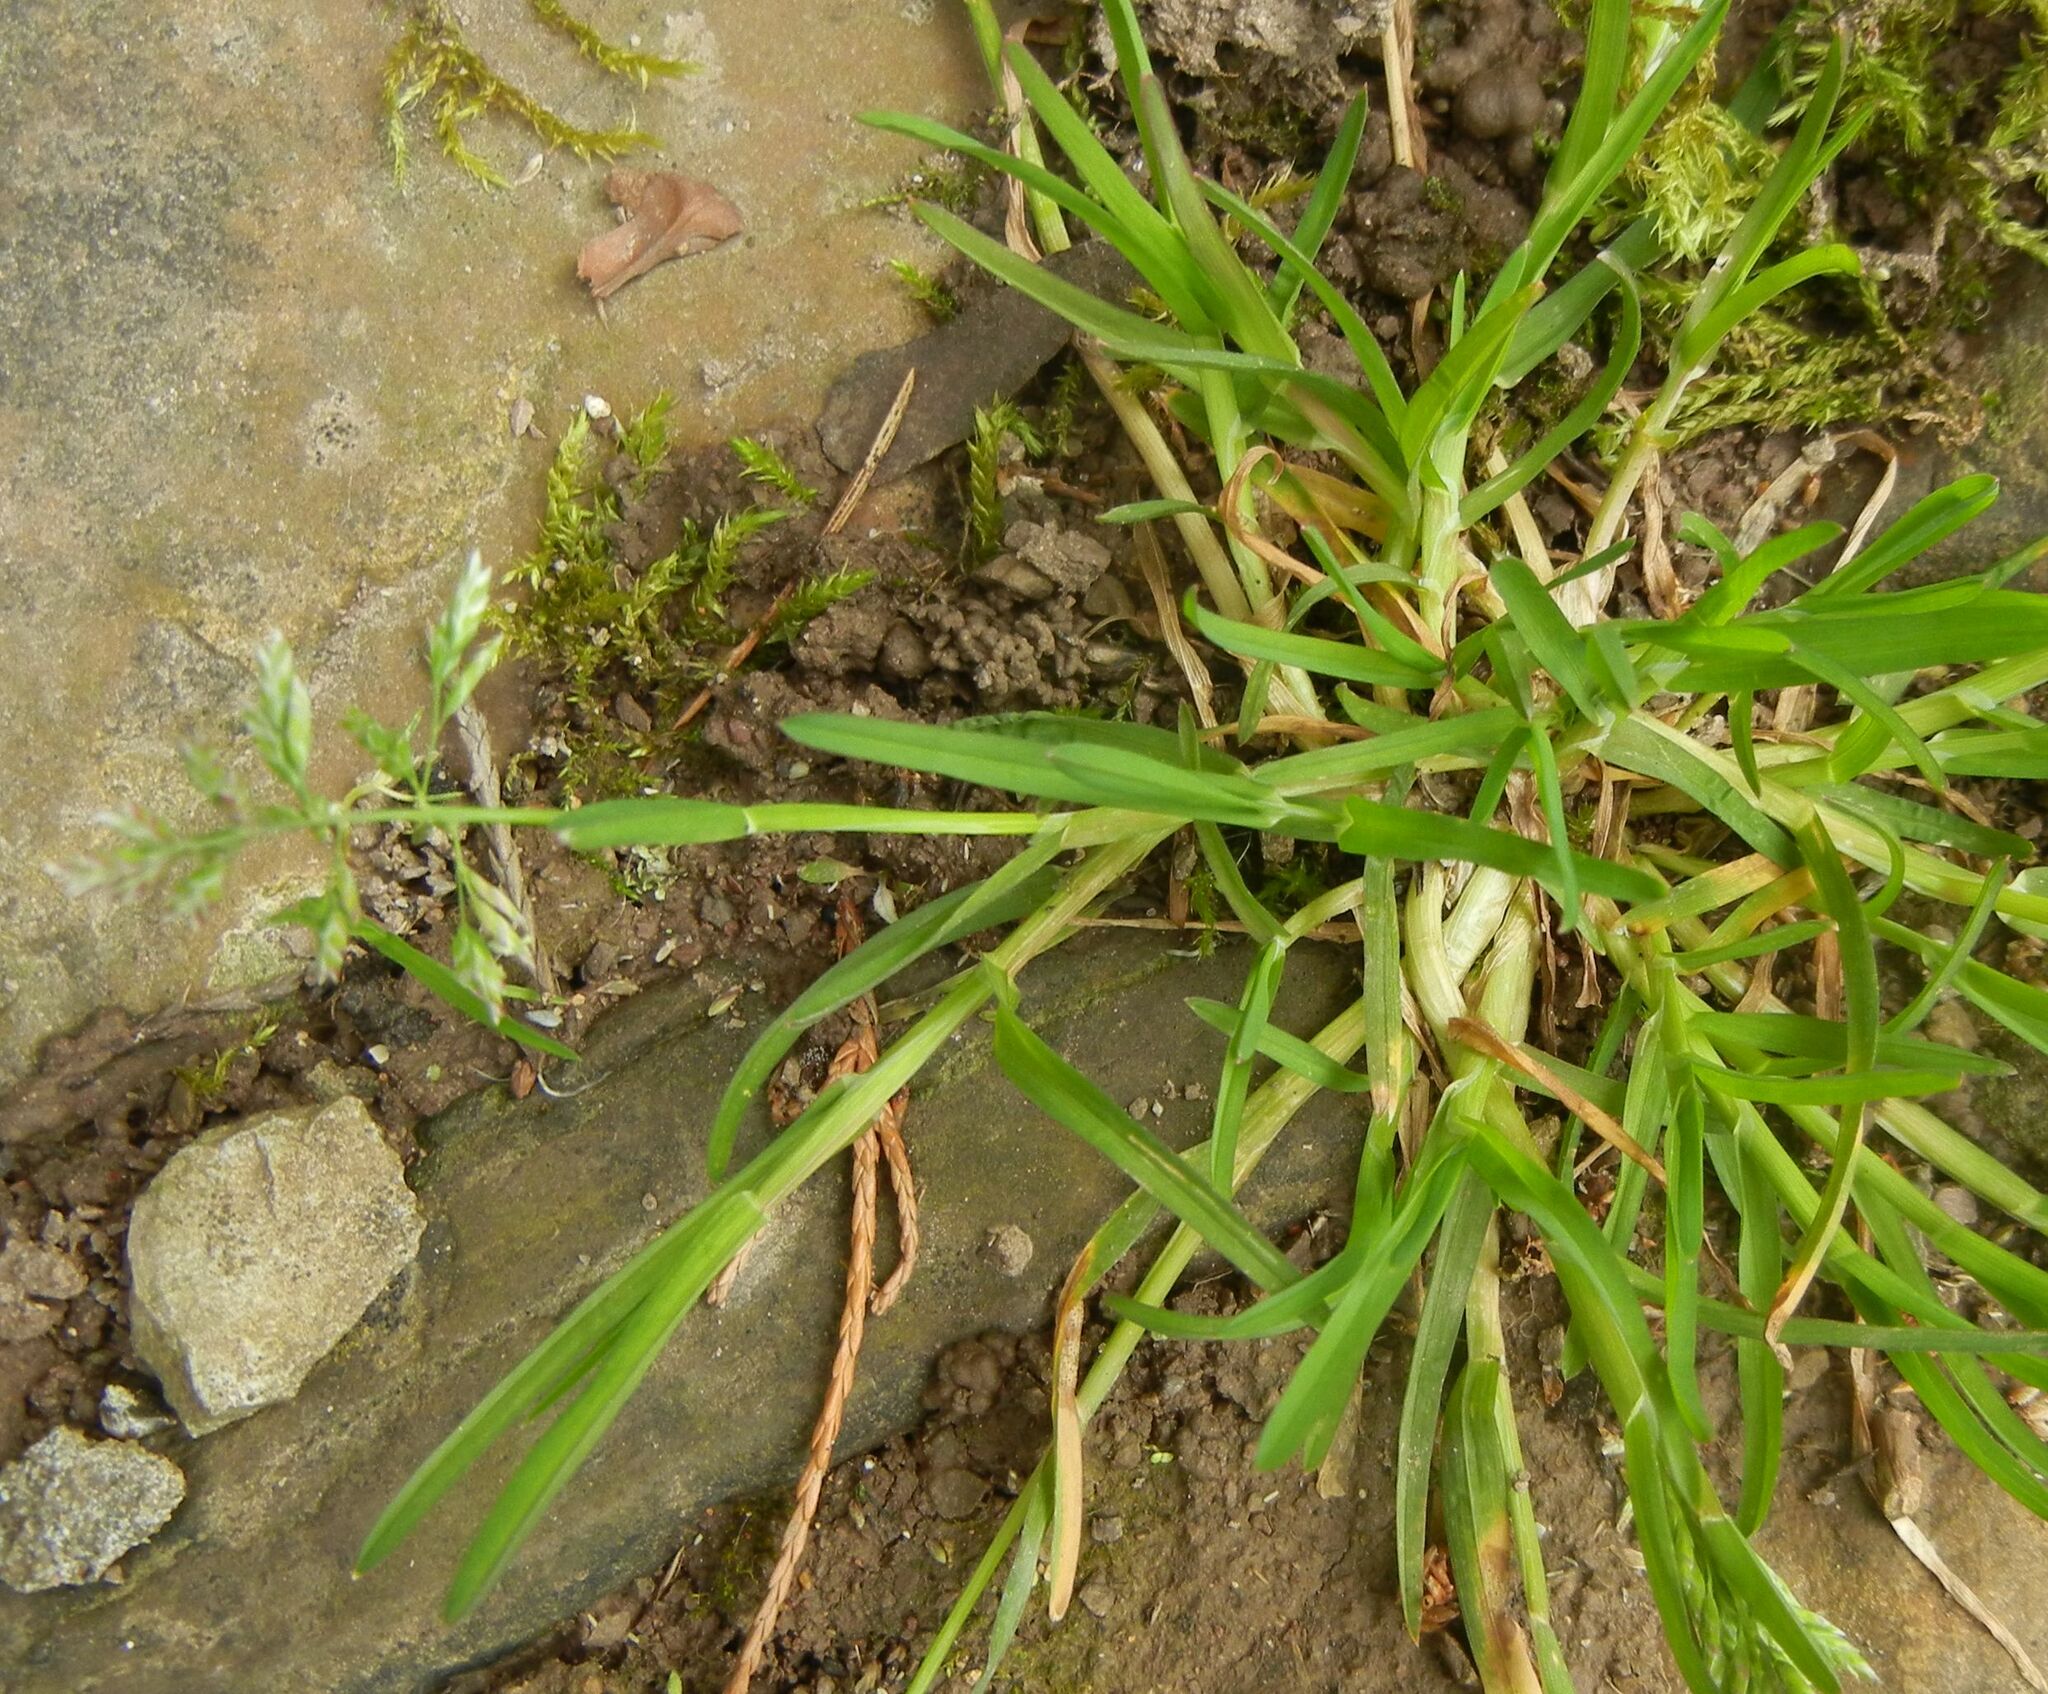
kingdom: Plantae
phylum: Tracheophyta
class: Liliopsida
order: Poales
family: Poaceae
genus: Poa
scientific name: Poa annua
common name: Annual bluegrass
